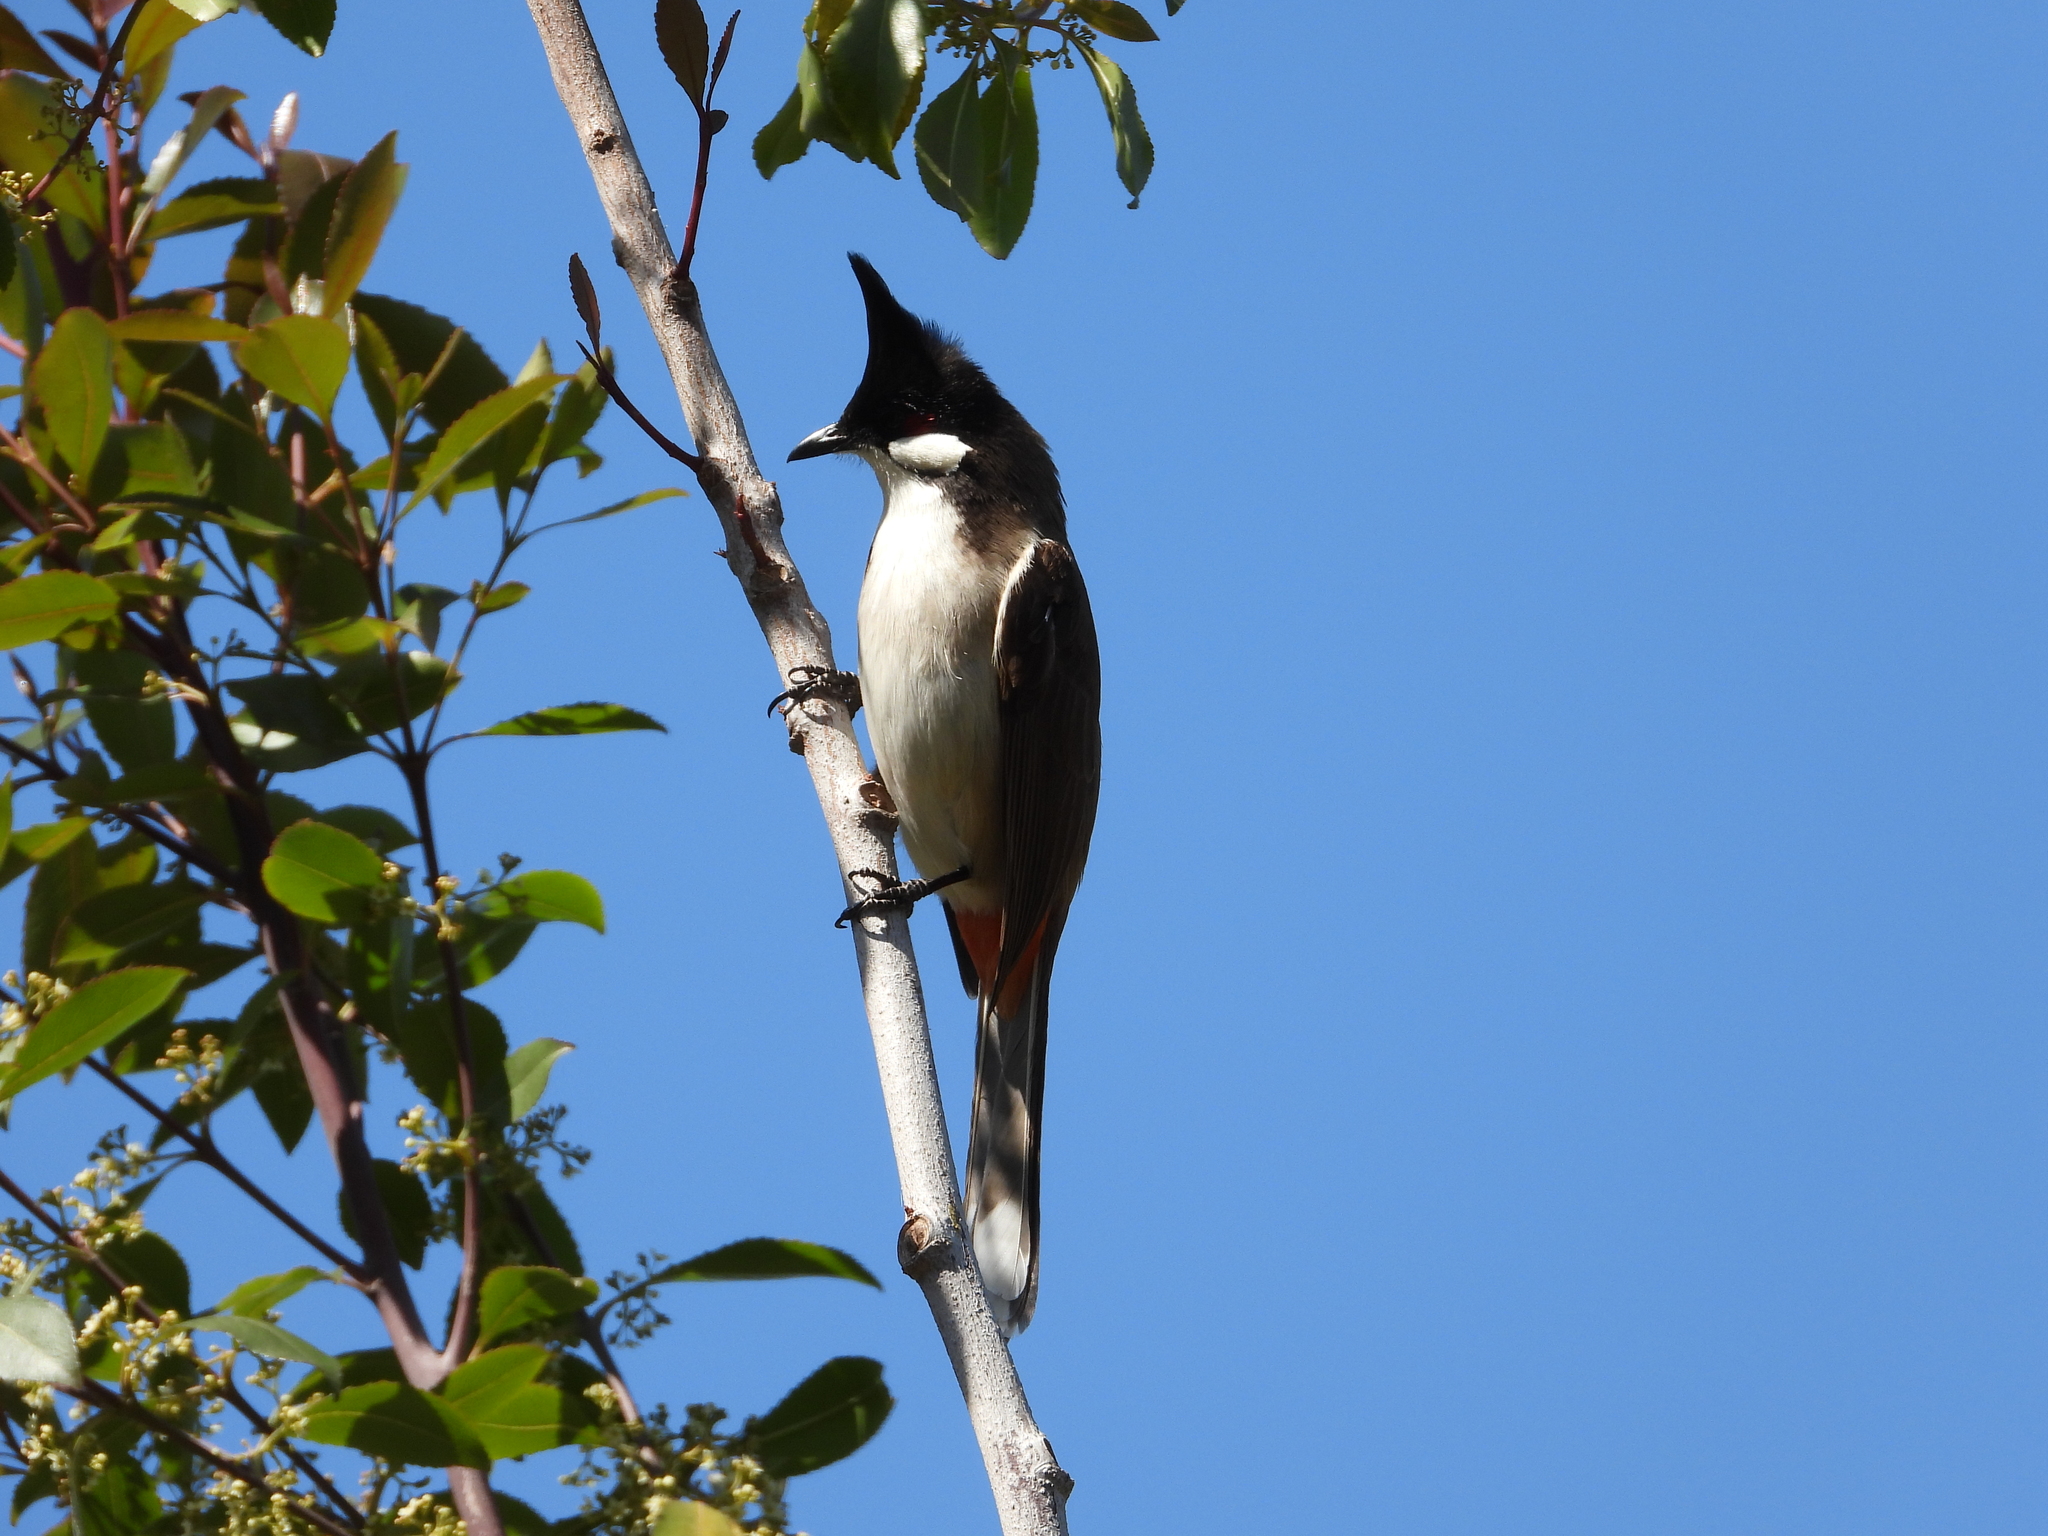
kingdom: Animalia
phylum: Chordata
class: Aves
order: Passeriformes
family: Pycnonotidae
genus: Pycnonotus
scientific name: Pycnonotus jocosus
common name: Red-whiskered bulbul
